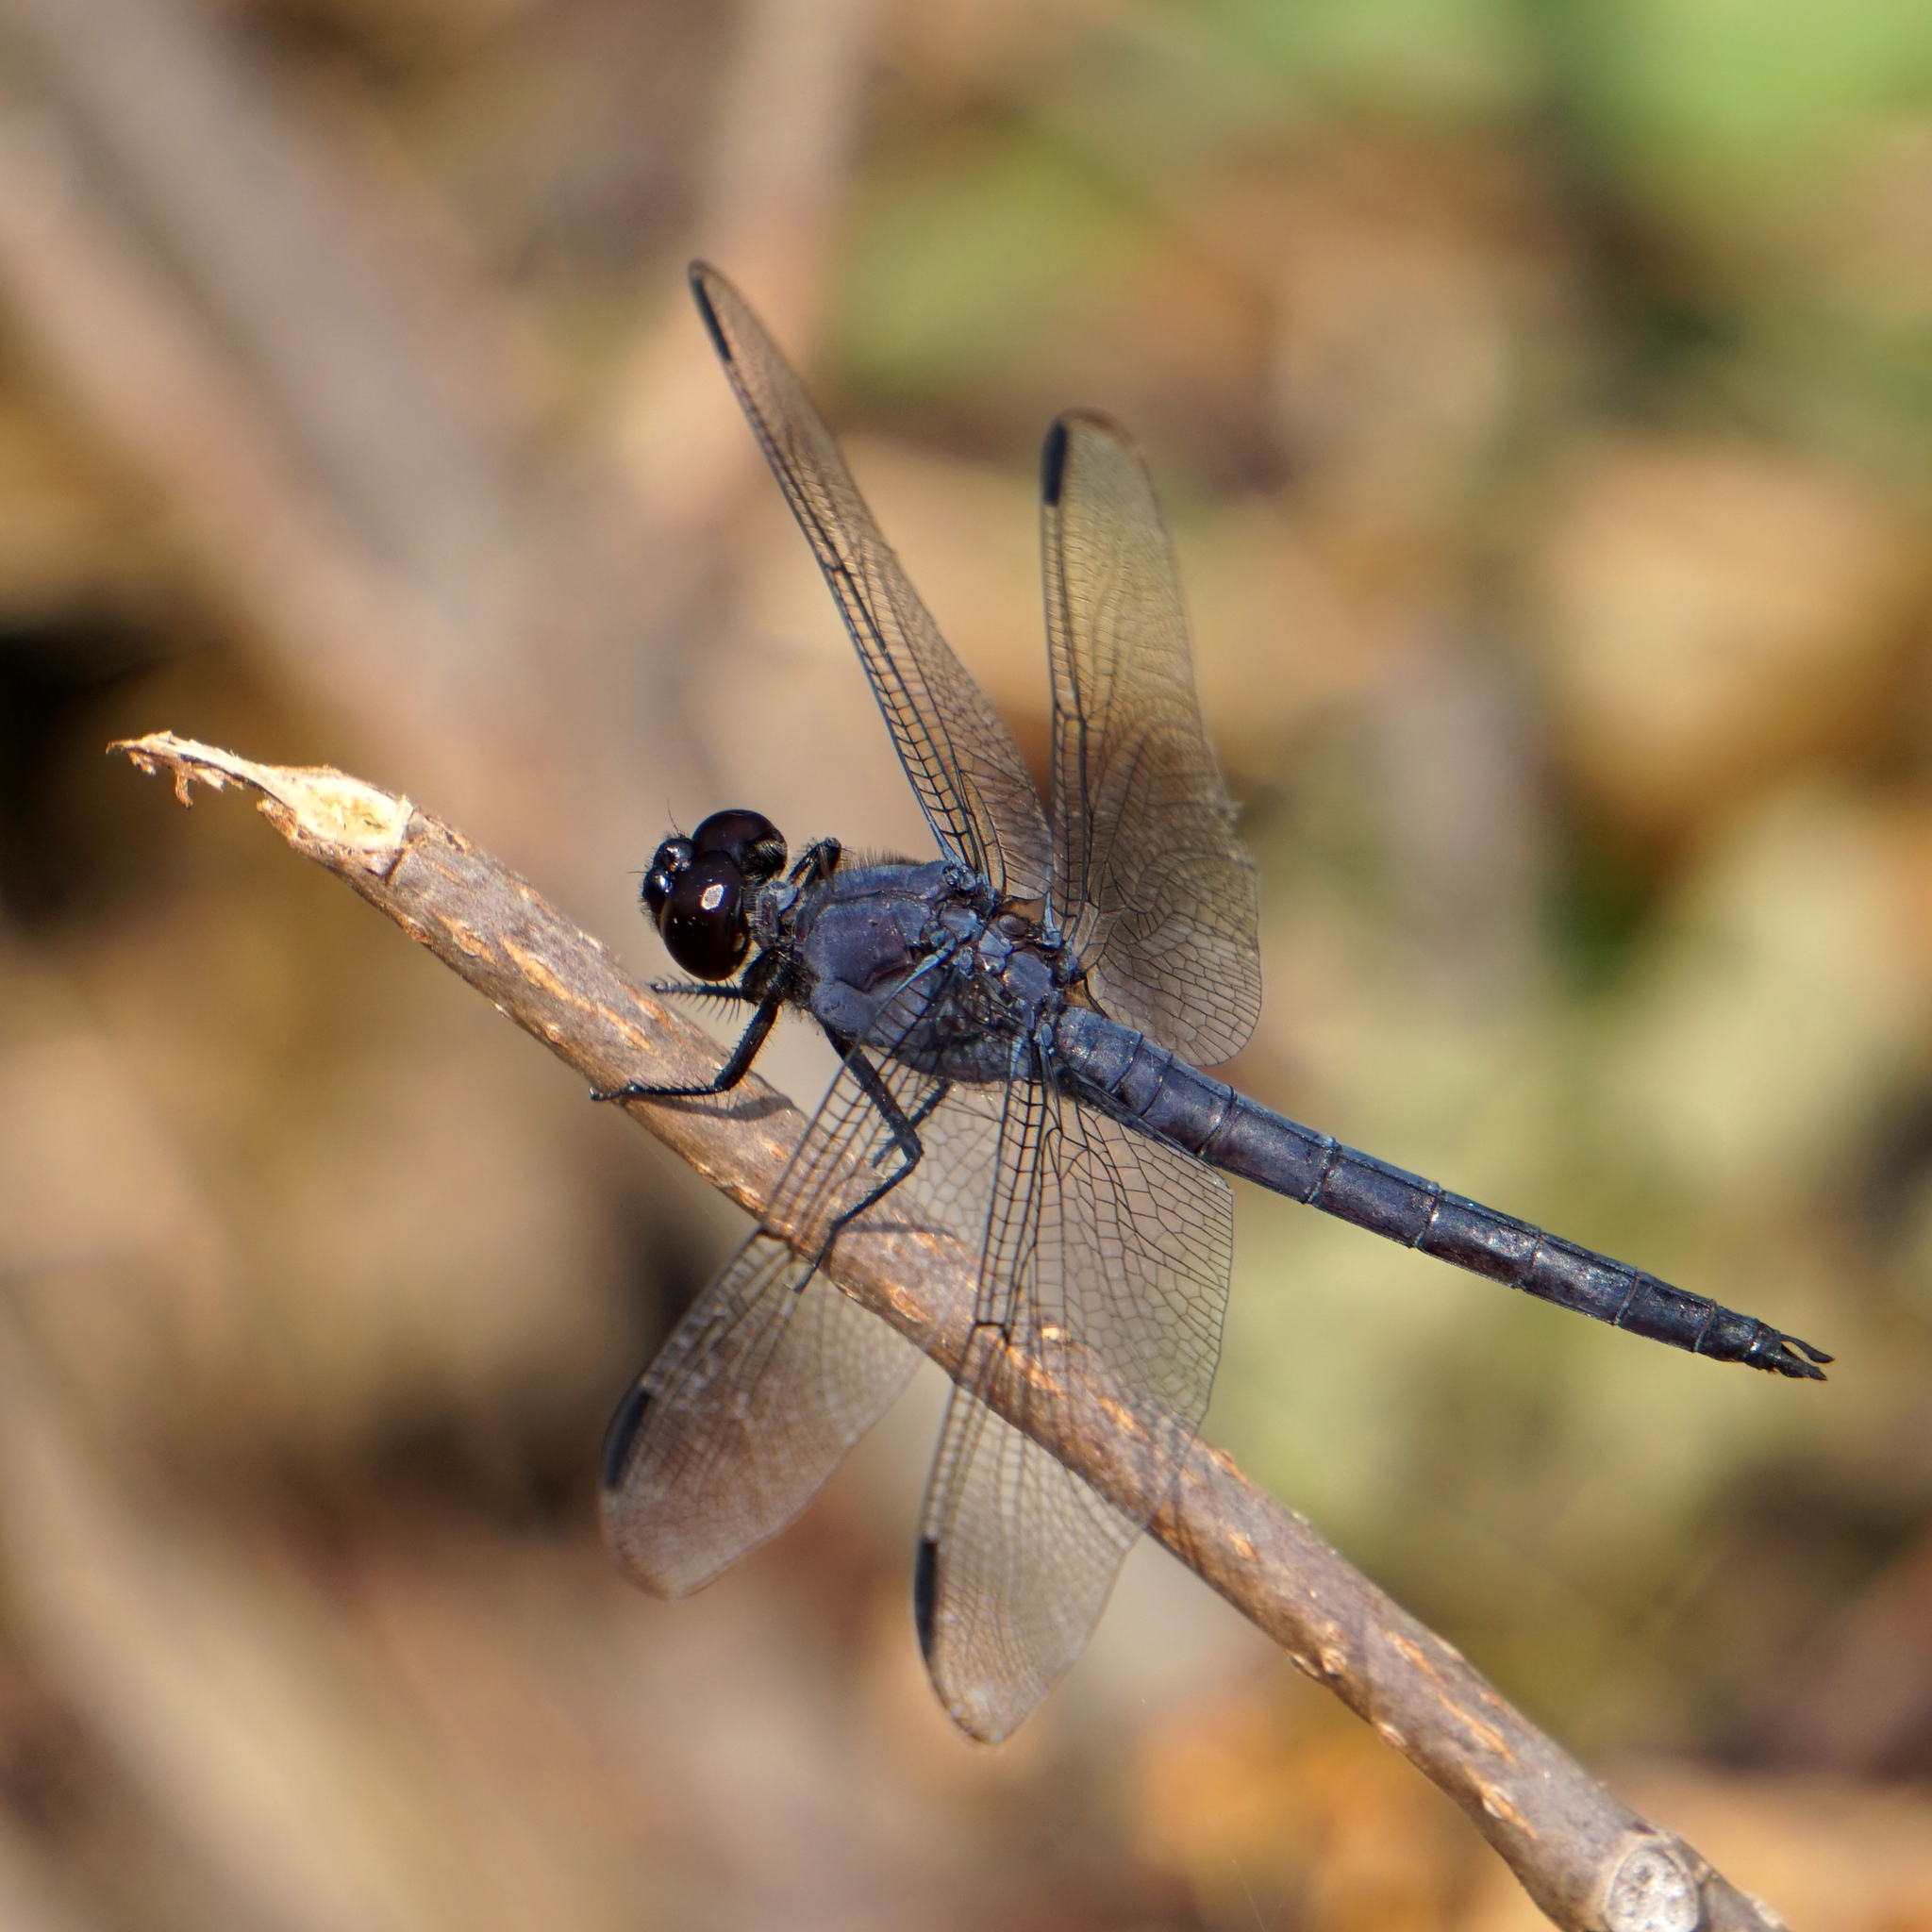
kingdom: Animalia
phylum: Arthropoda
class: Insecta
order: Odonata
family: Libellulidae
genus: Libellula
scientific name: Libellula incesta
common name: Slaty skimmer
